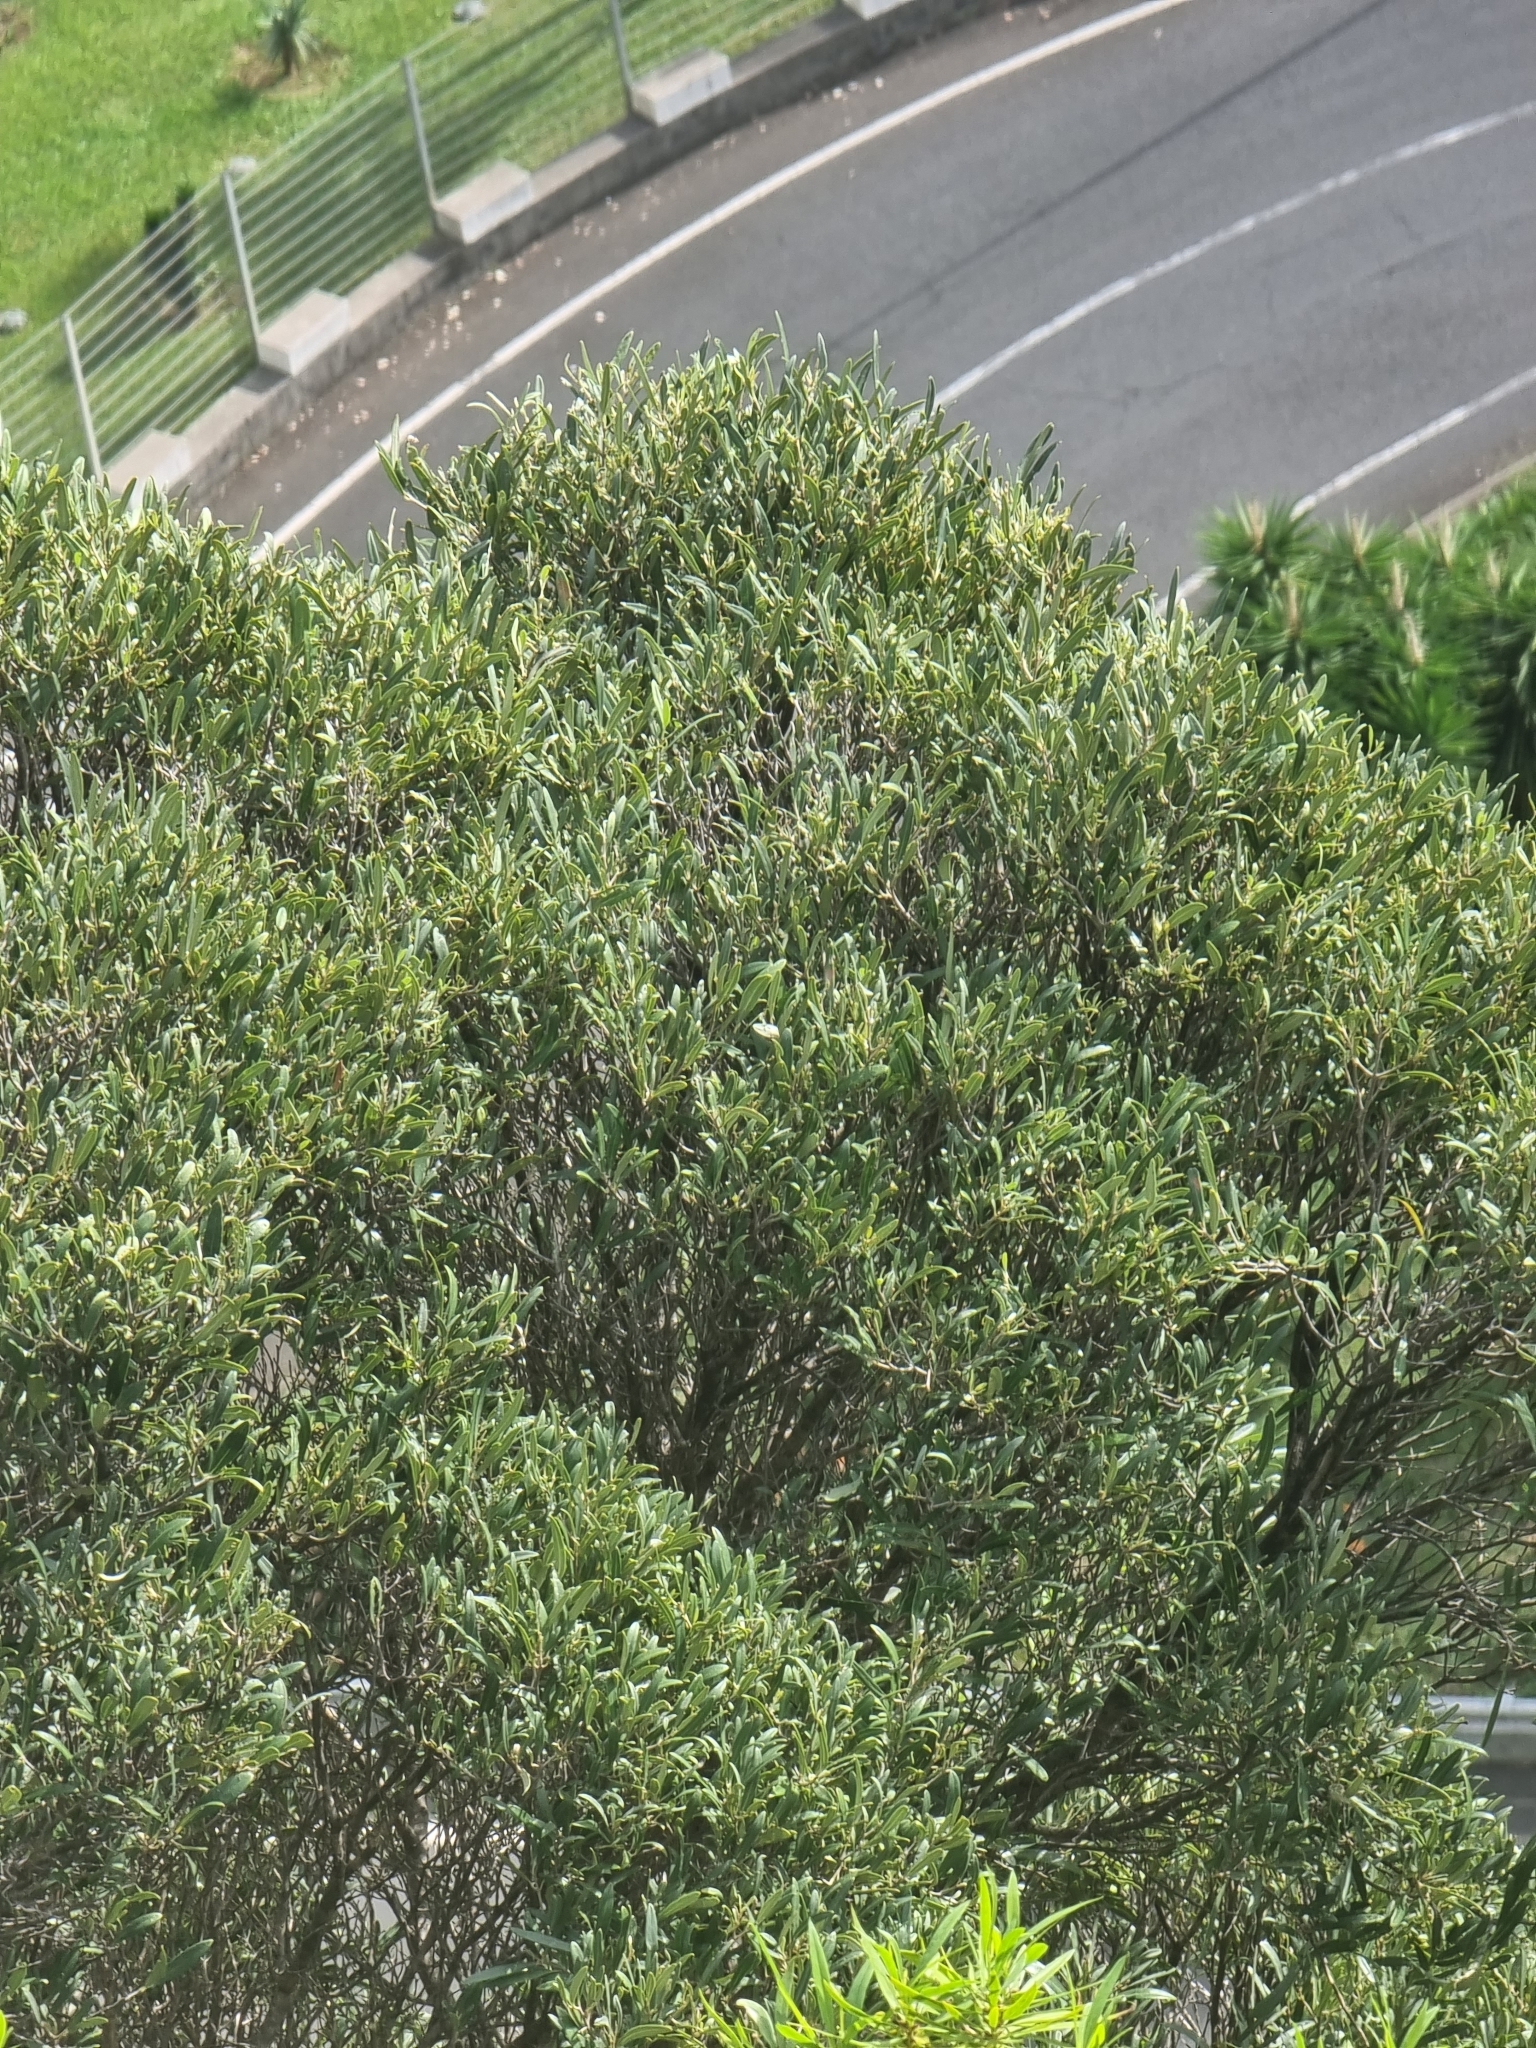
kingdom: Plantae
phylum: Tracheophyta
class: Magnoliopsida
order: Lamiales
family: Oleaceae
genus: Olea
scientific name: Olea europaea
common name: Olive
